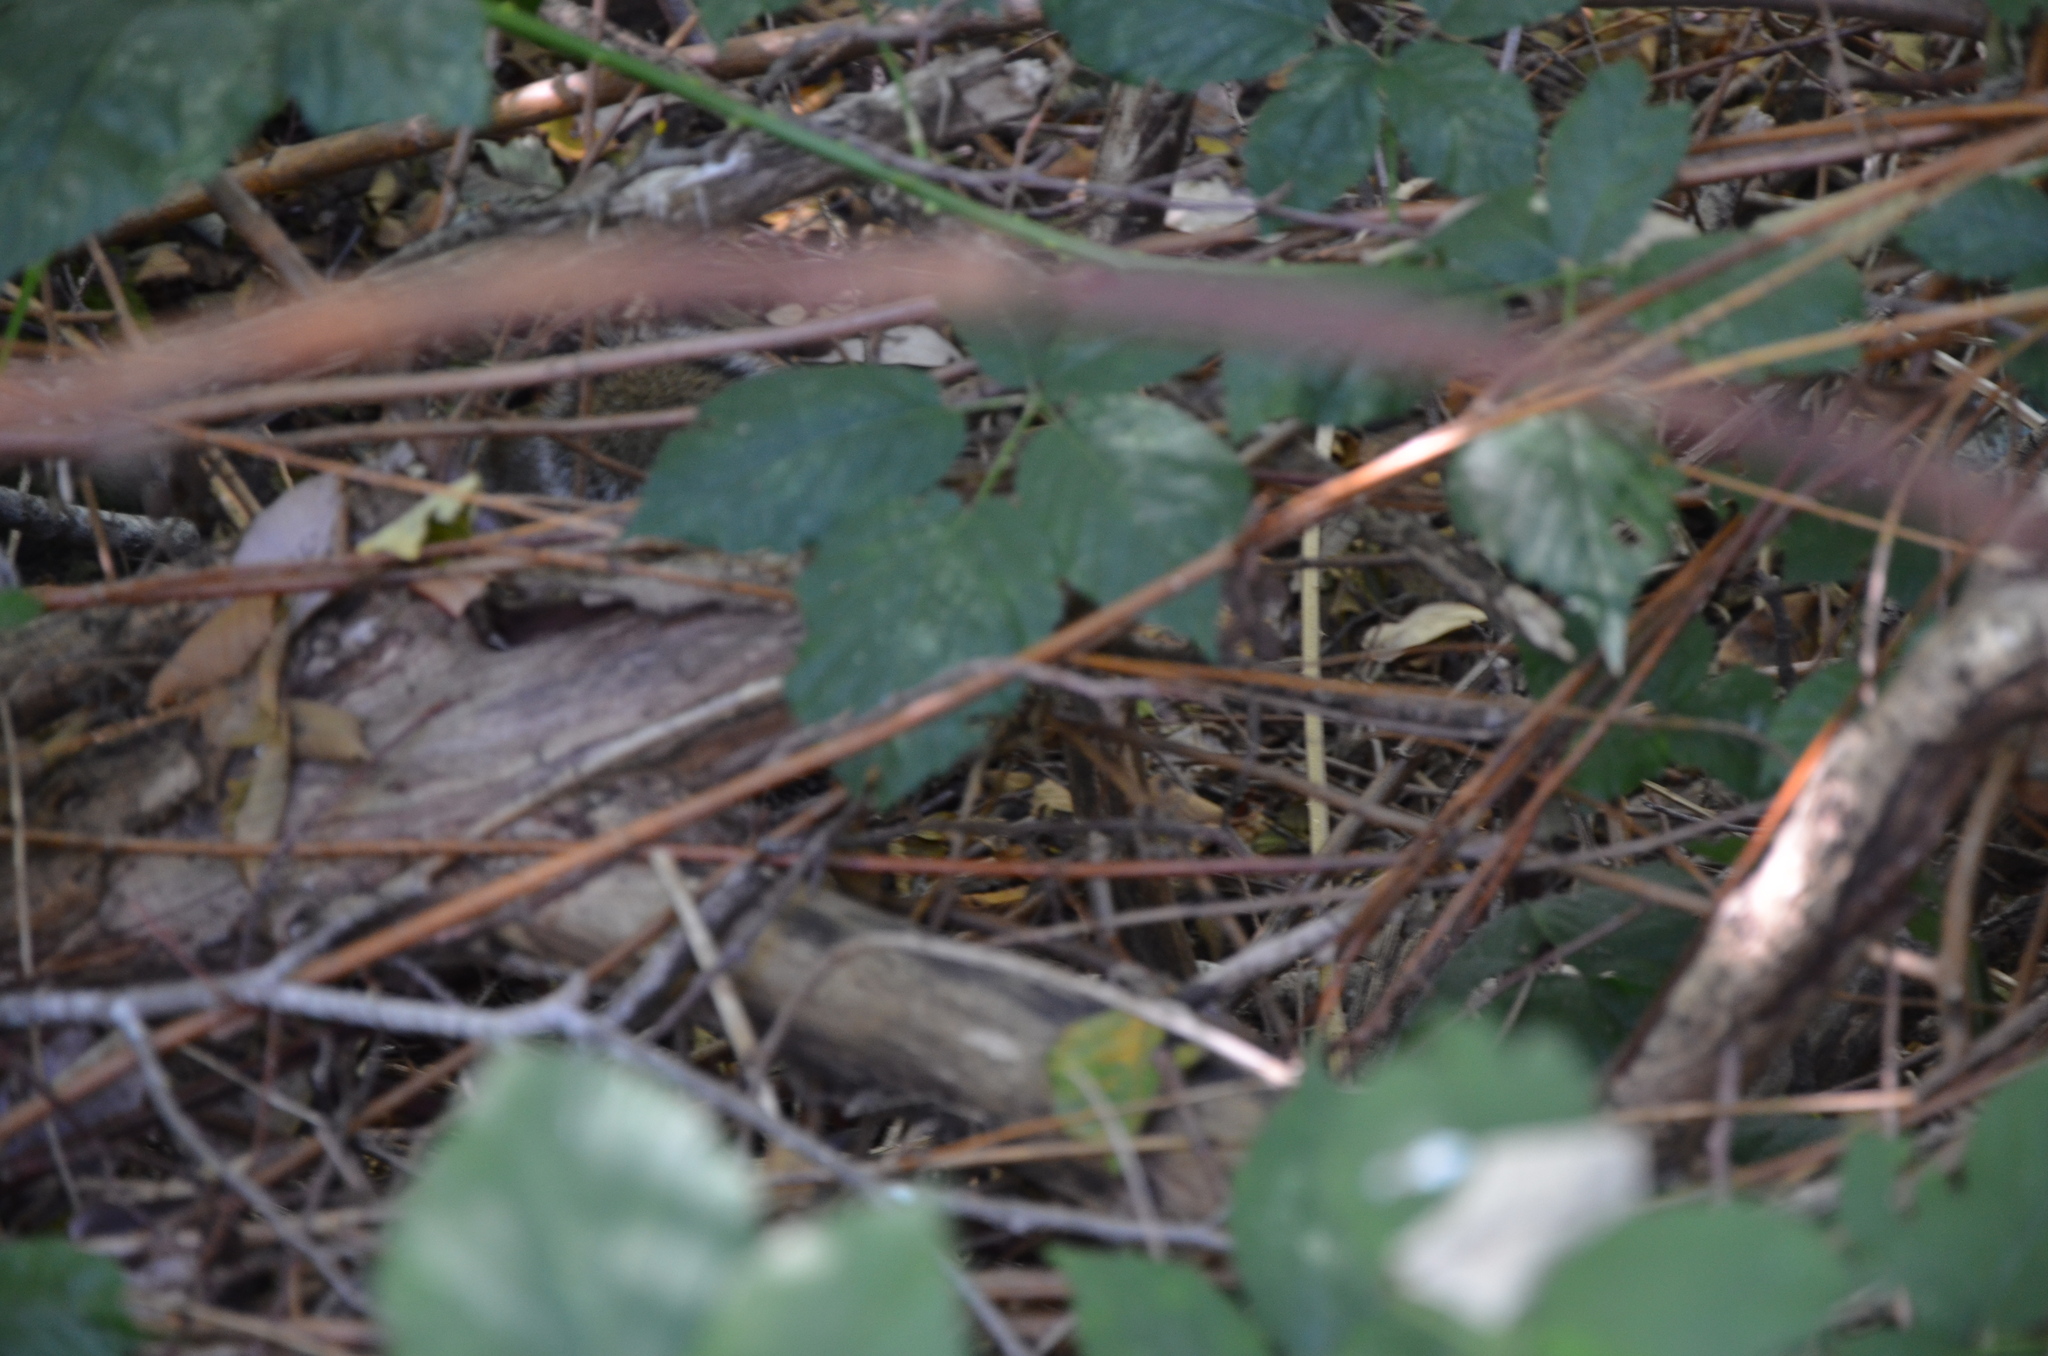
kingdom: Animalia
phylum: Chordata
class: Mammalia
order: Rodentia
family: Sciuridae
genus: Sciurus
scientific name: Sciurus carolinensis
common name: Eastern gray squirrel
